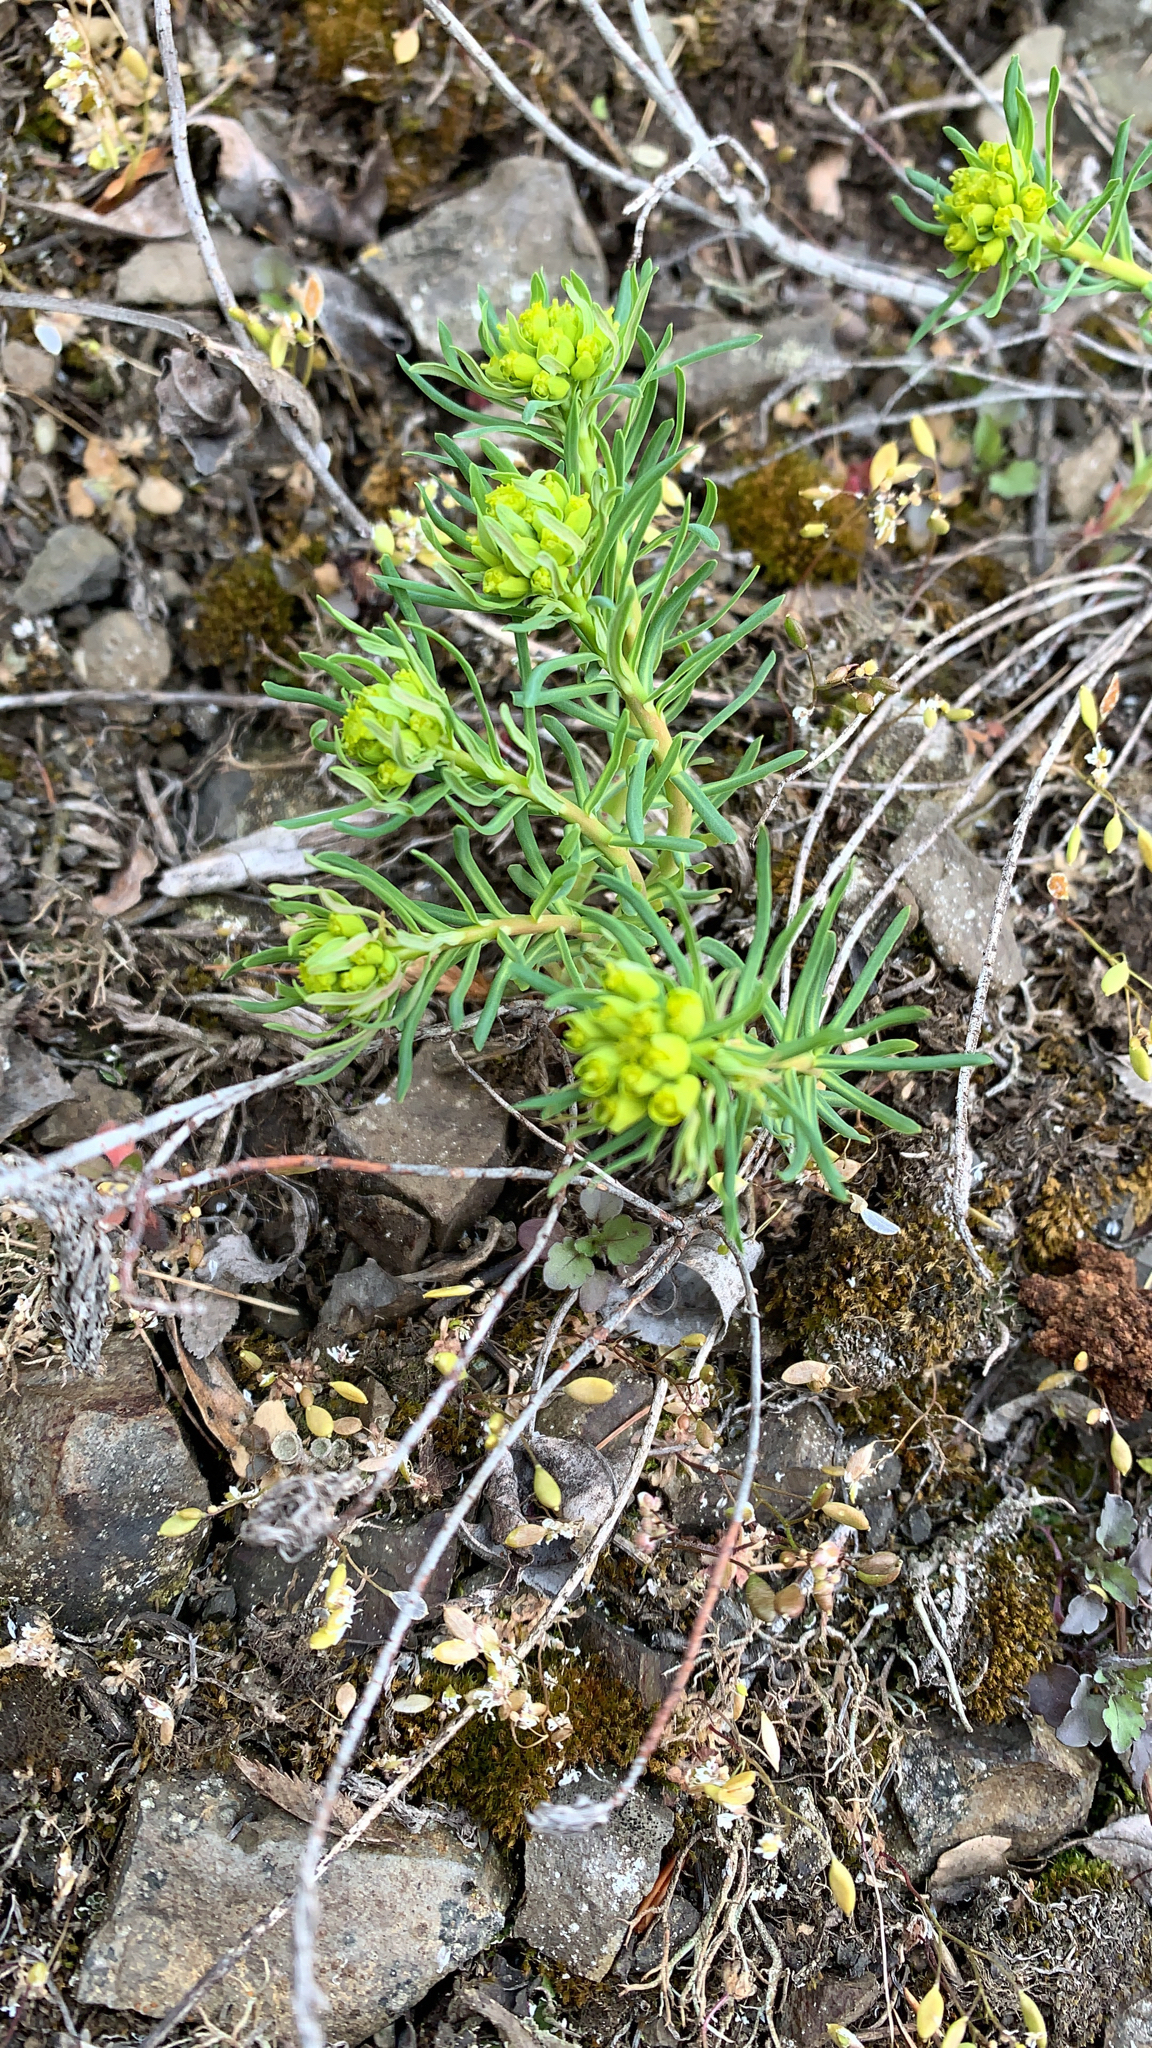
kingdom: Plantae
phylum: Tracheophyta
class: Magnoliopsida
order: Malpighiales
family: Euphorbiaceae
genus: Euphorbia
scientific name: Euphorbia cyparissias
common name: Cypress spurge
